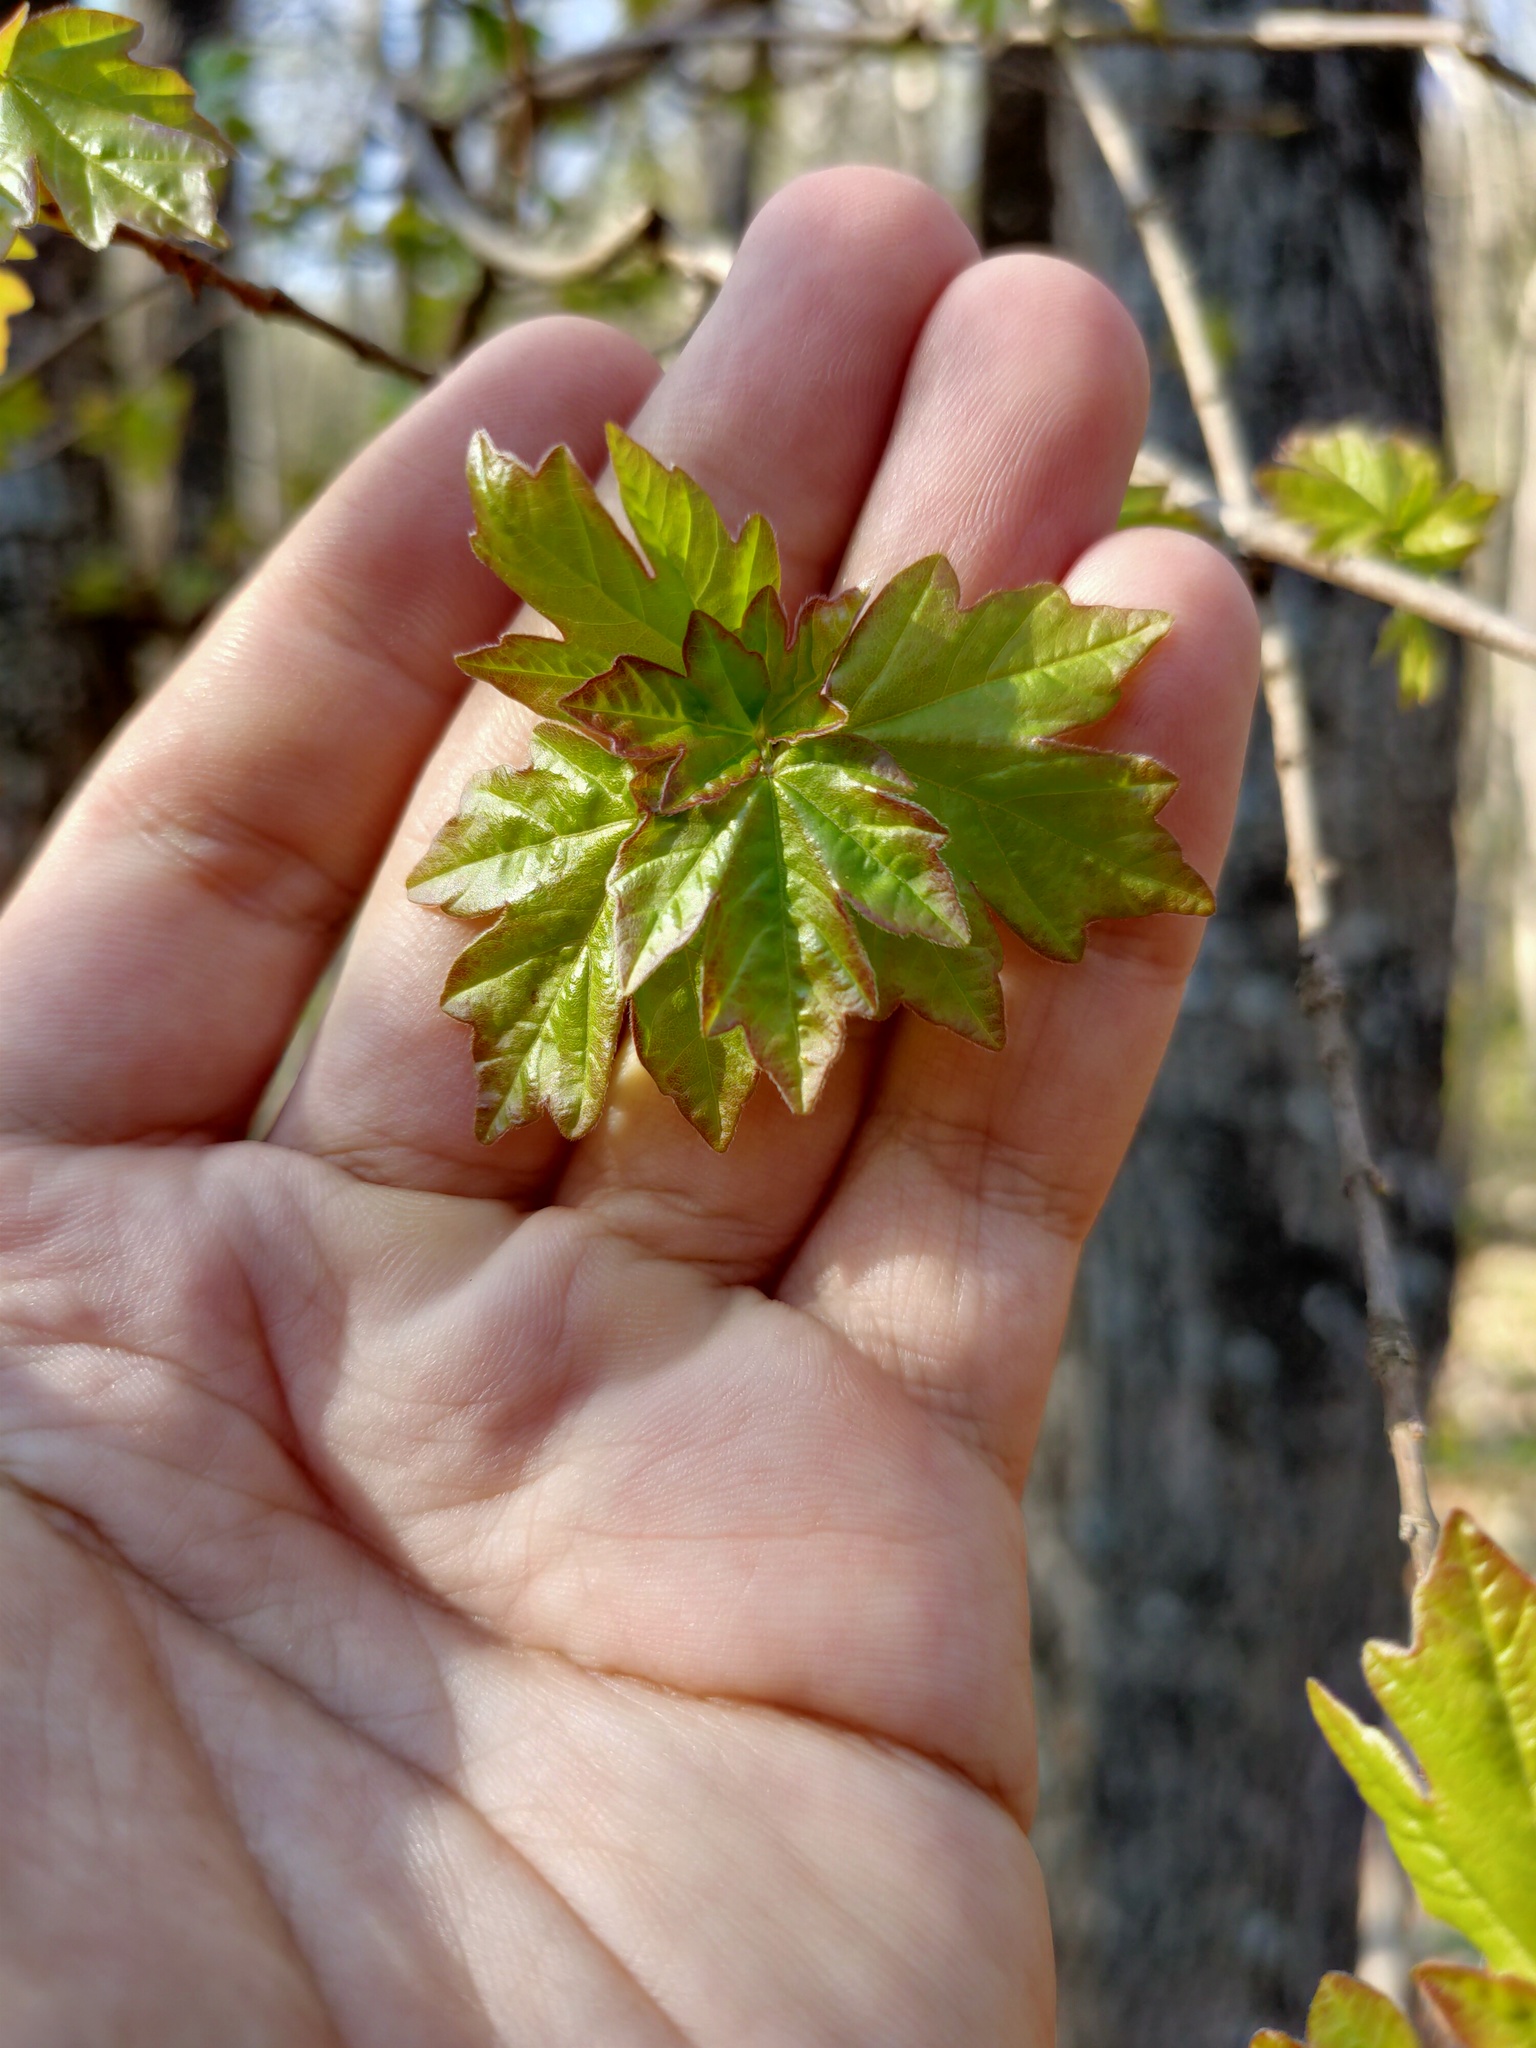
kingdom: Plantae
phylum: Tracheophyta
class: Magnoliopsida
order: Sapindales
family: Sapindaceae
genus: Acer
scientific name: Acer campestre
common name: Field maple
